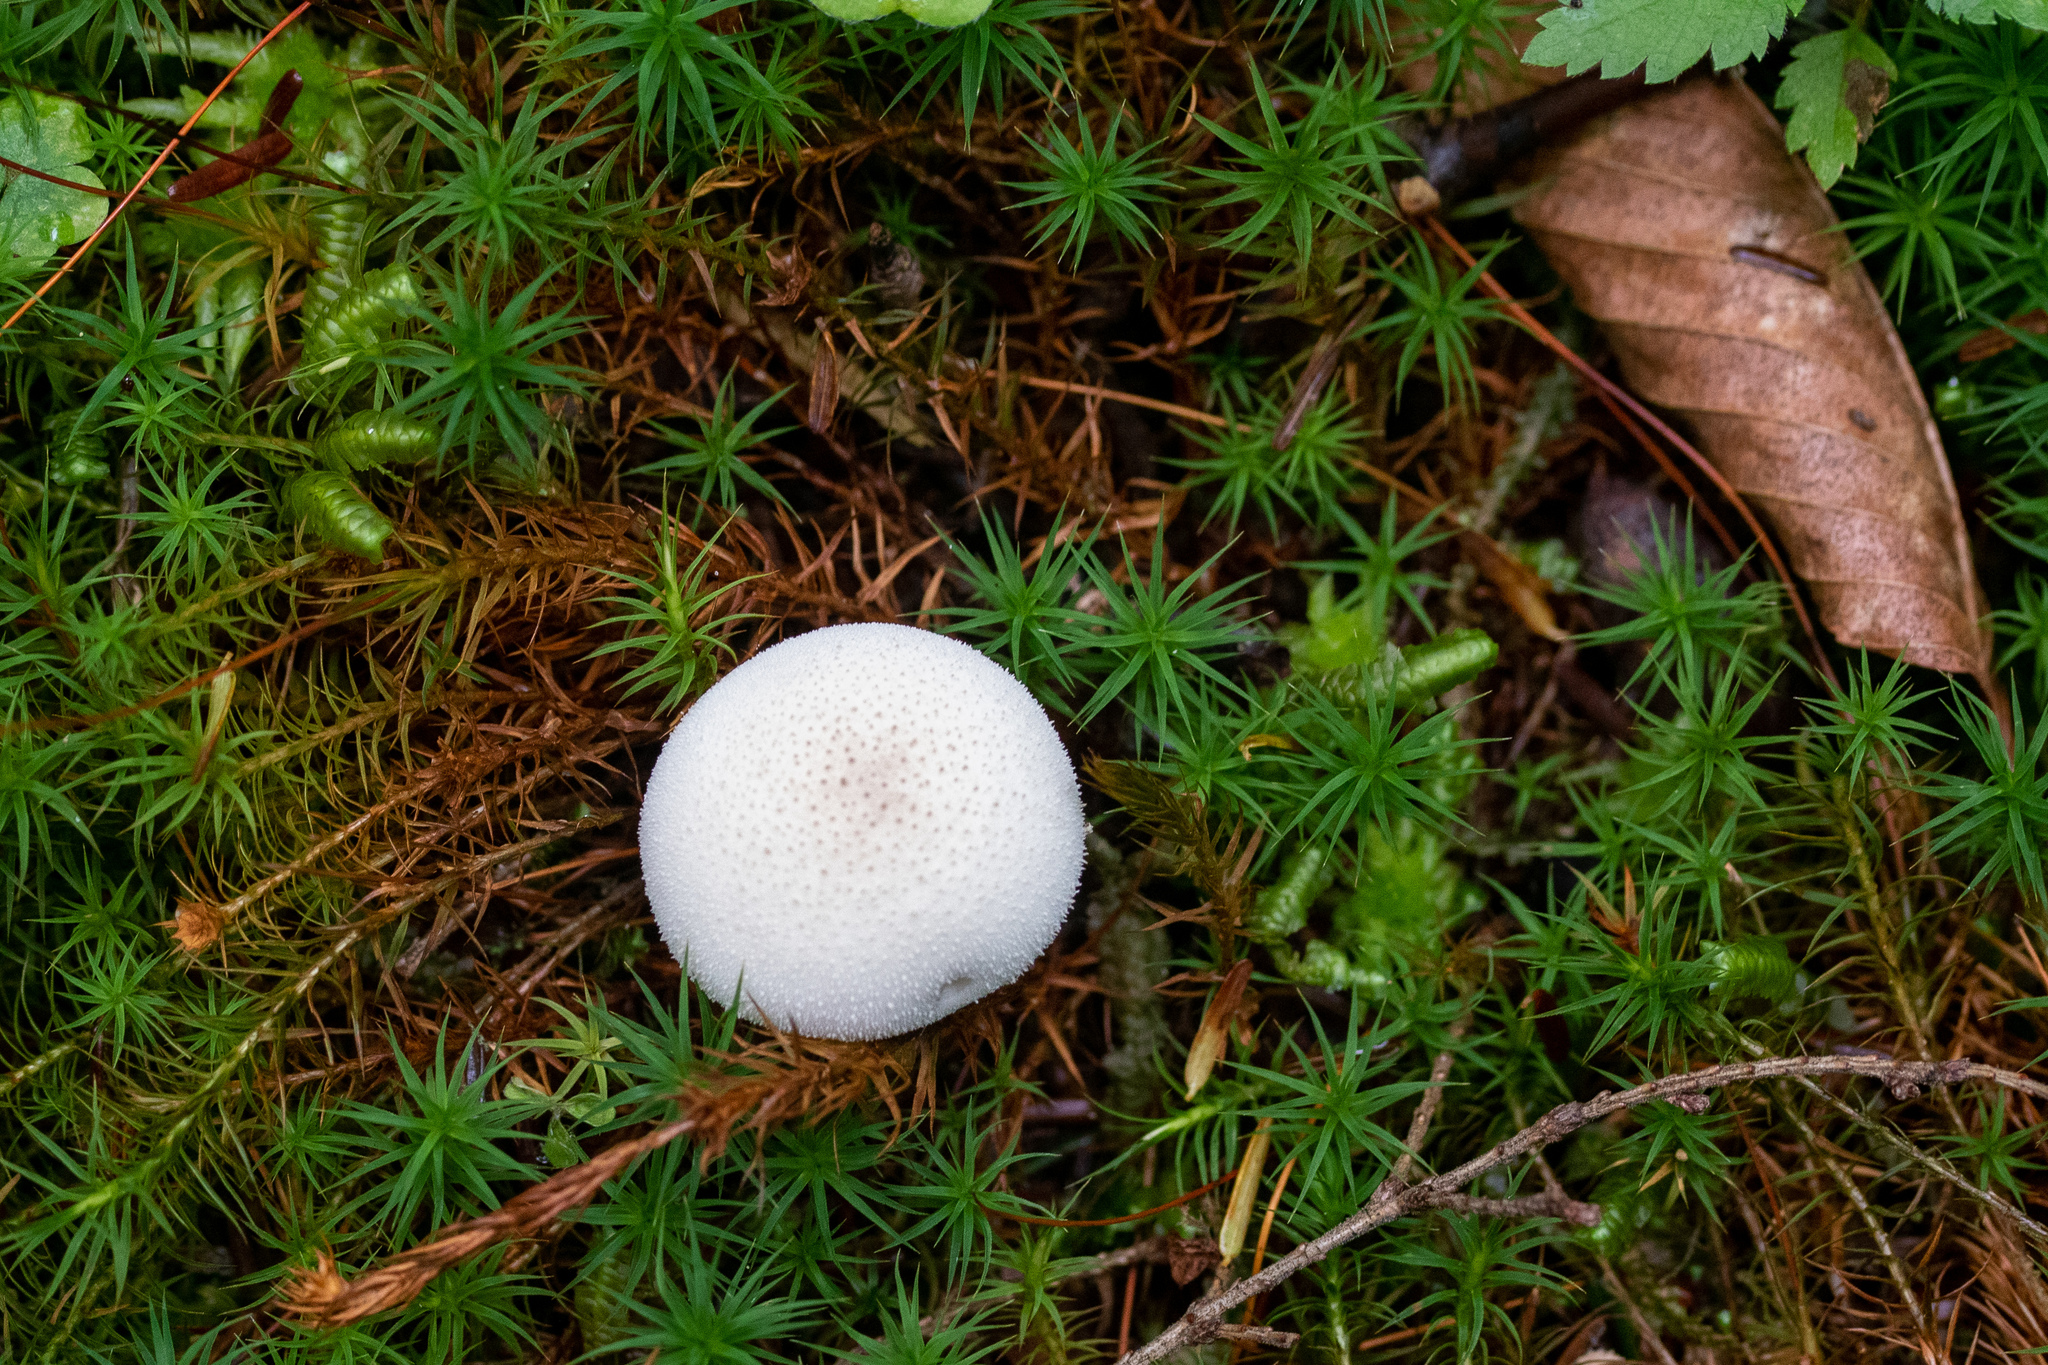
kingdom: Fungi
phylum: Basidiomycota
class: Agaricomycetes
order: Agaricales
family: Lycoperdaceae
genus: Lycoperdon
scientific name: Lycoperdon perlatum
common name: Common puffball
